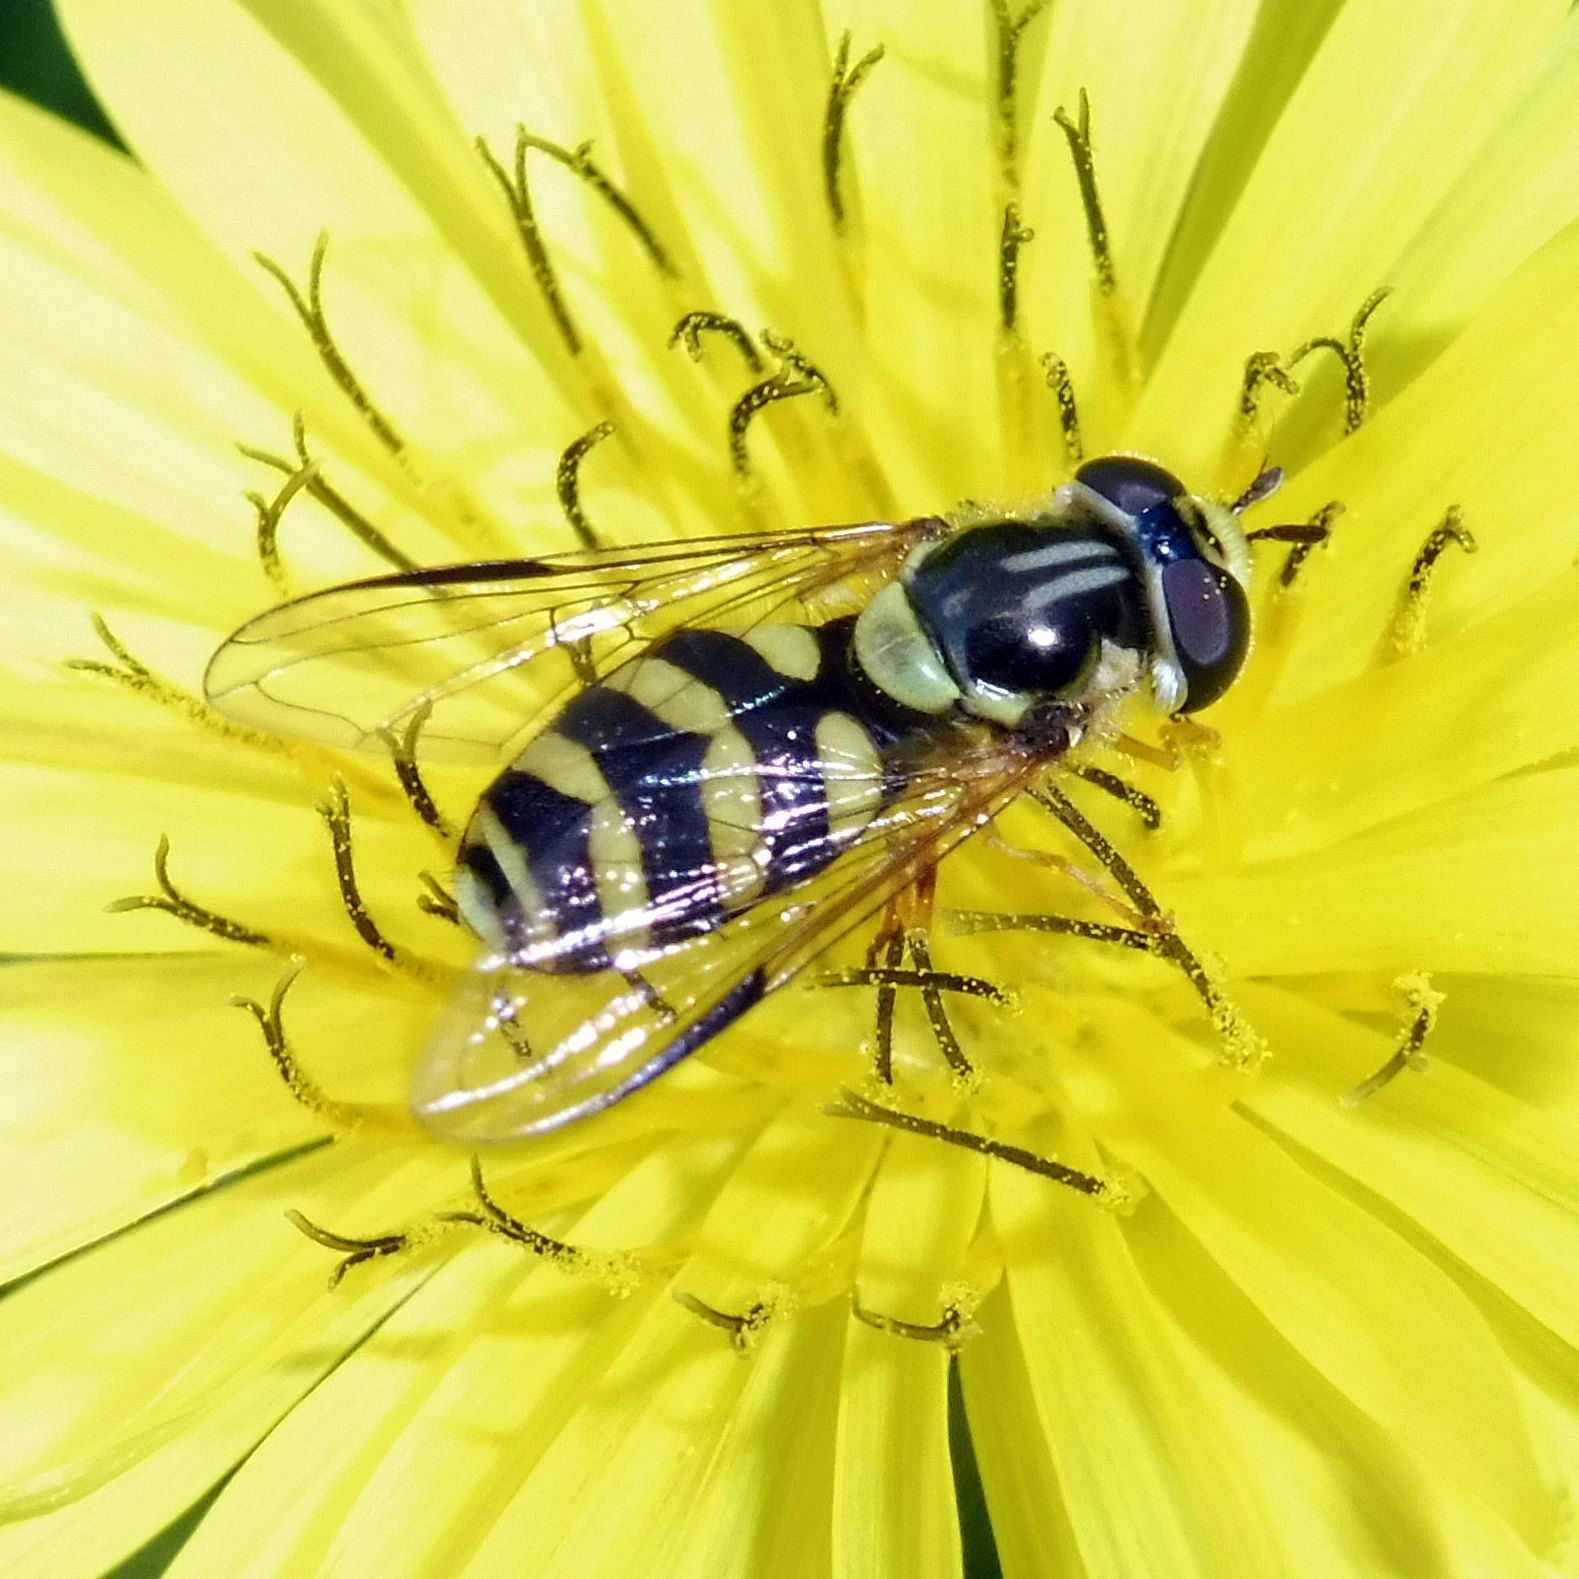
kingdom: Animalia
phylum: Arthropoda
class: Insecta
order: Diptera
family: Syrphidae
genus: Dasysyrphus
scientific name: Dasysyrphus albostriatus
